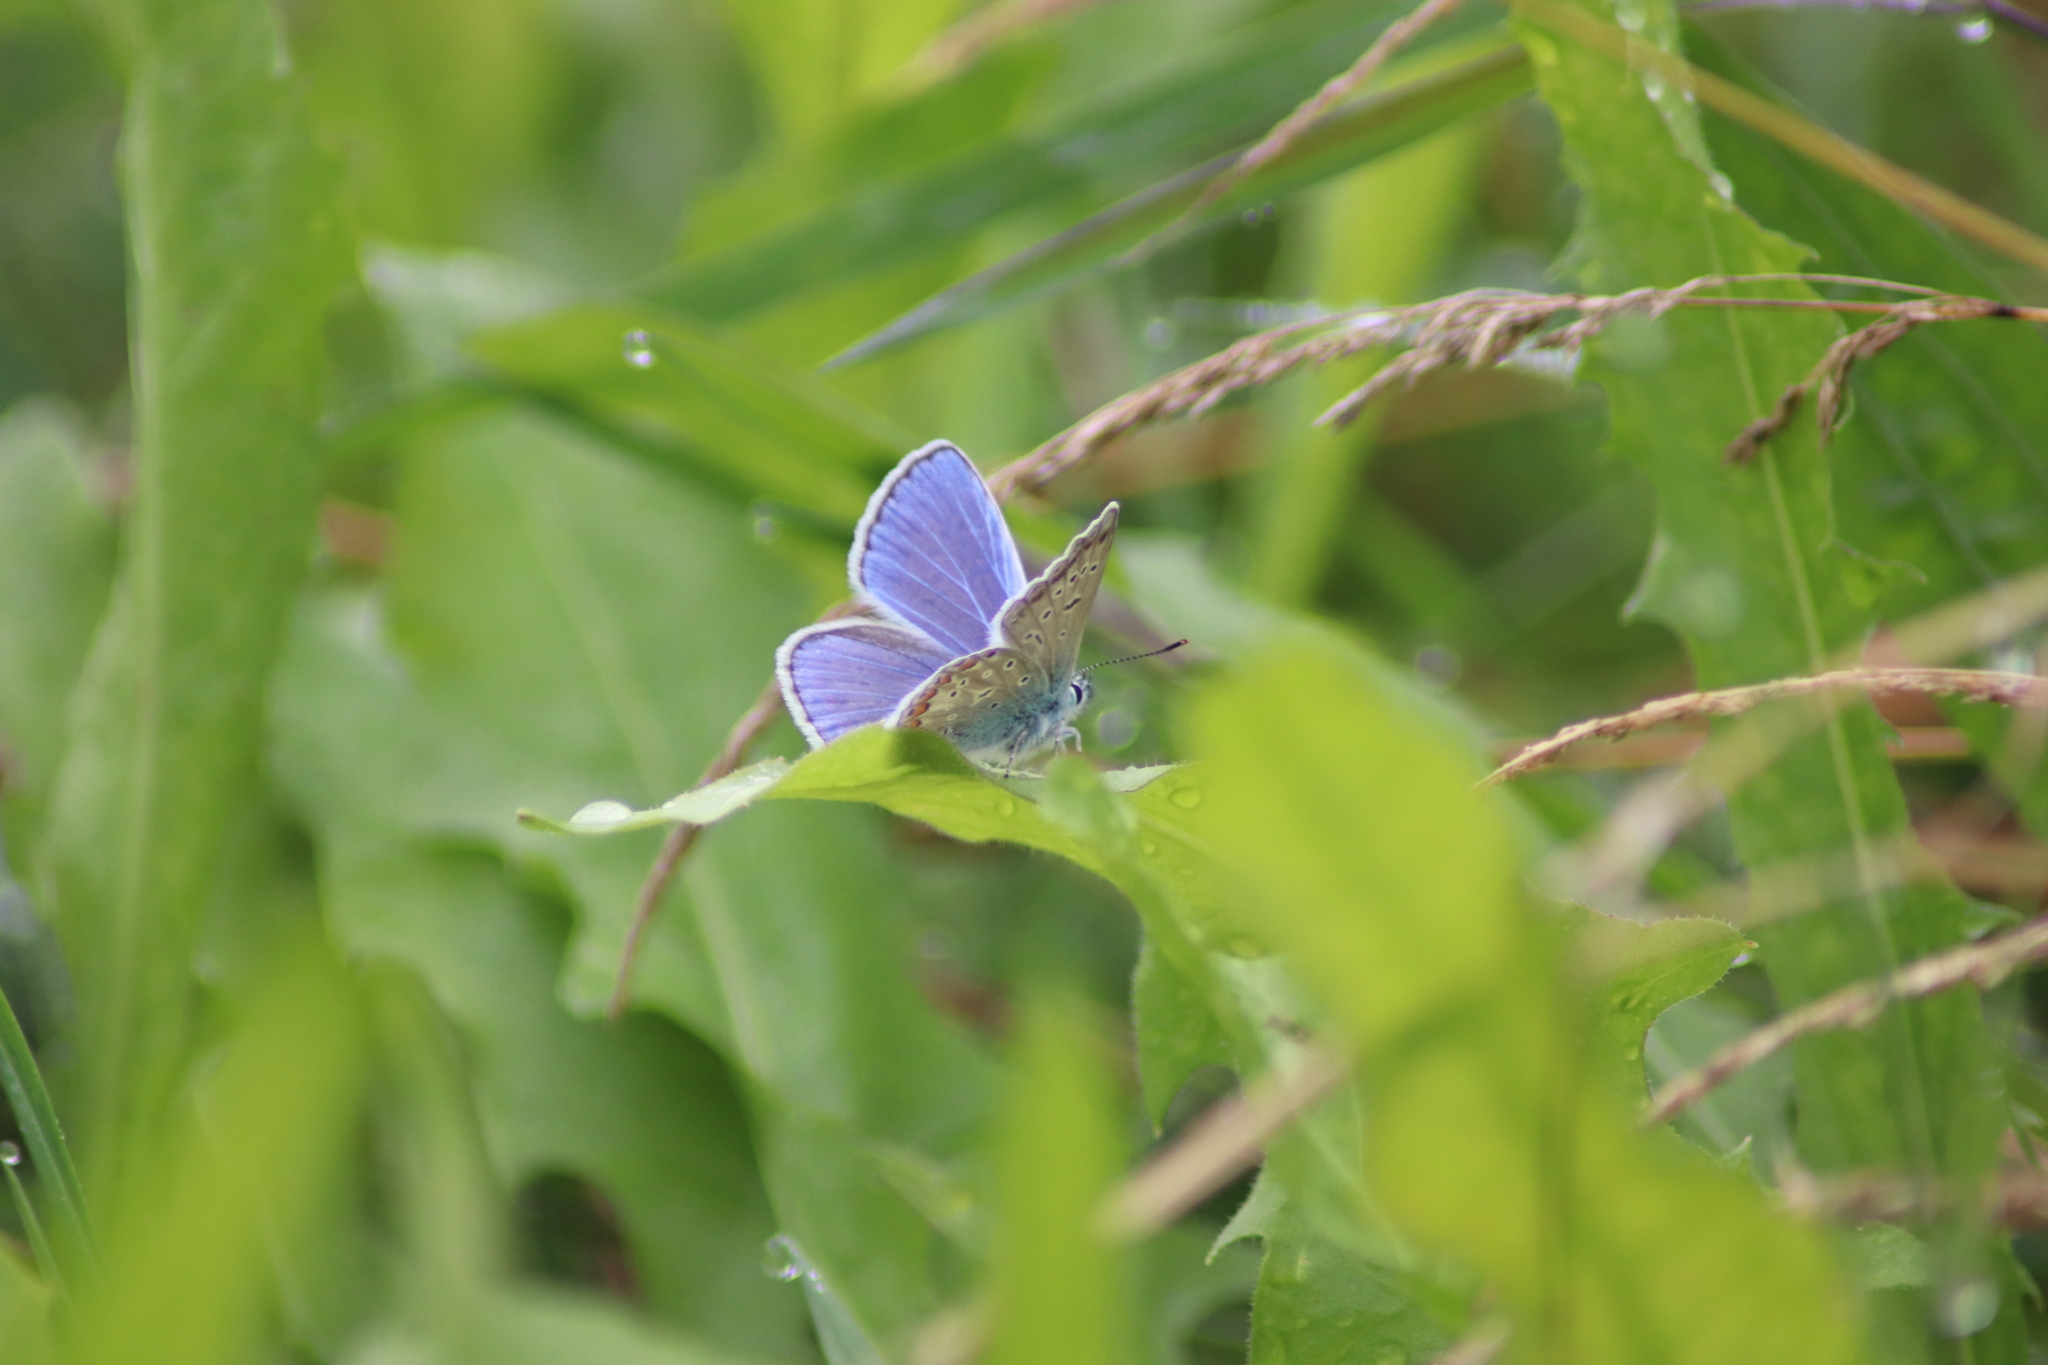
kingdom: Animalia
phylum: Arthropoda
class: Insecta
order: Lepidoptera
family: Lycaenidae
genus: Polyommatus
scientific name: Polyommatus icarus
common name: Common blue
